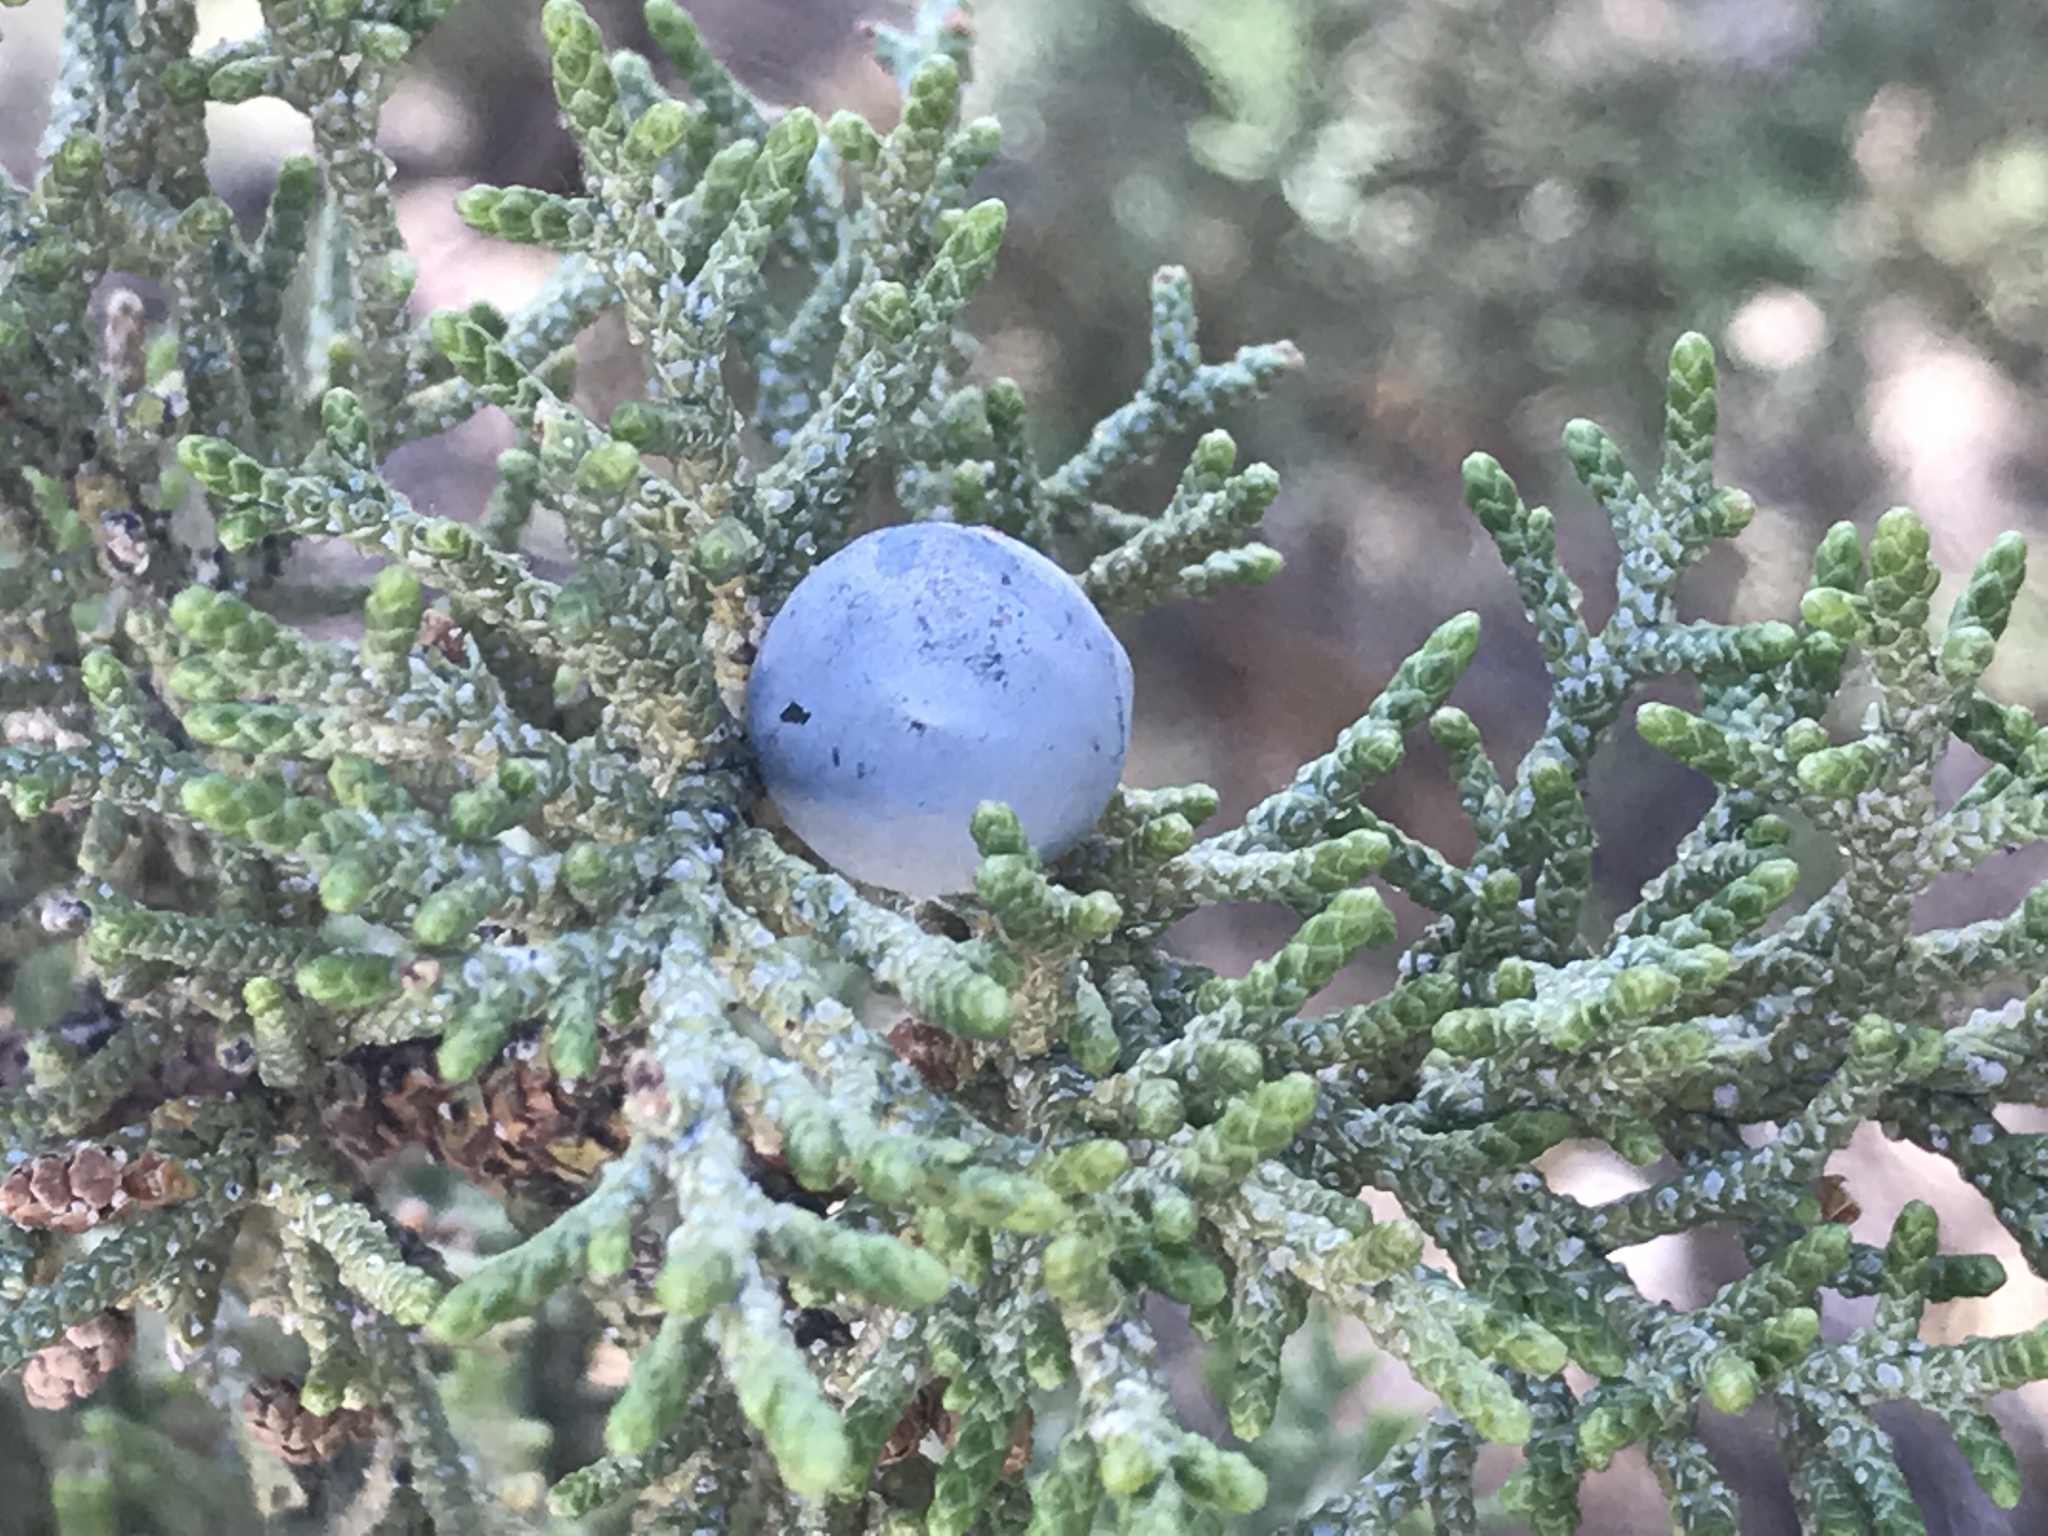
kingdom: Plantae
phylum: Tracheophyta
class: Pinopsida
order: Pinales
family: Cupressaceae
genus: Juniperus
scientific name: Juniperus occidentalis
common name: Western juniper
